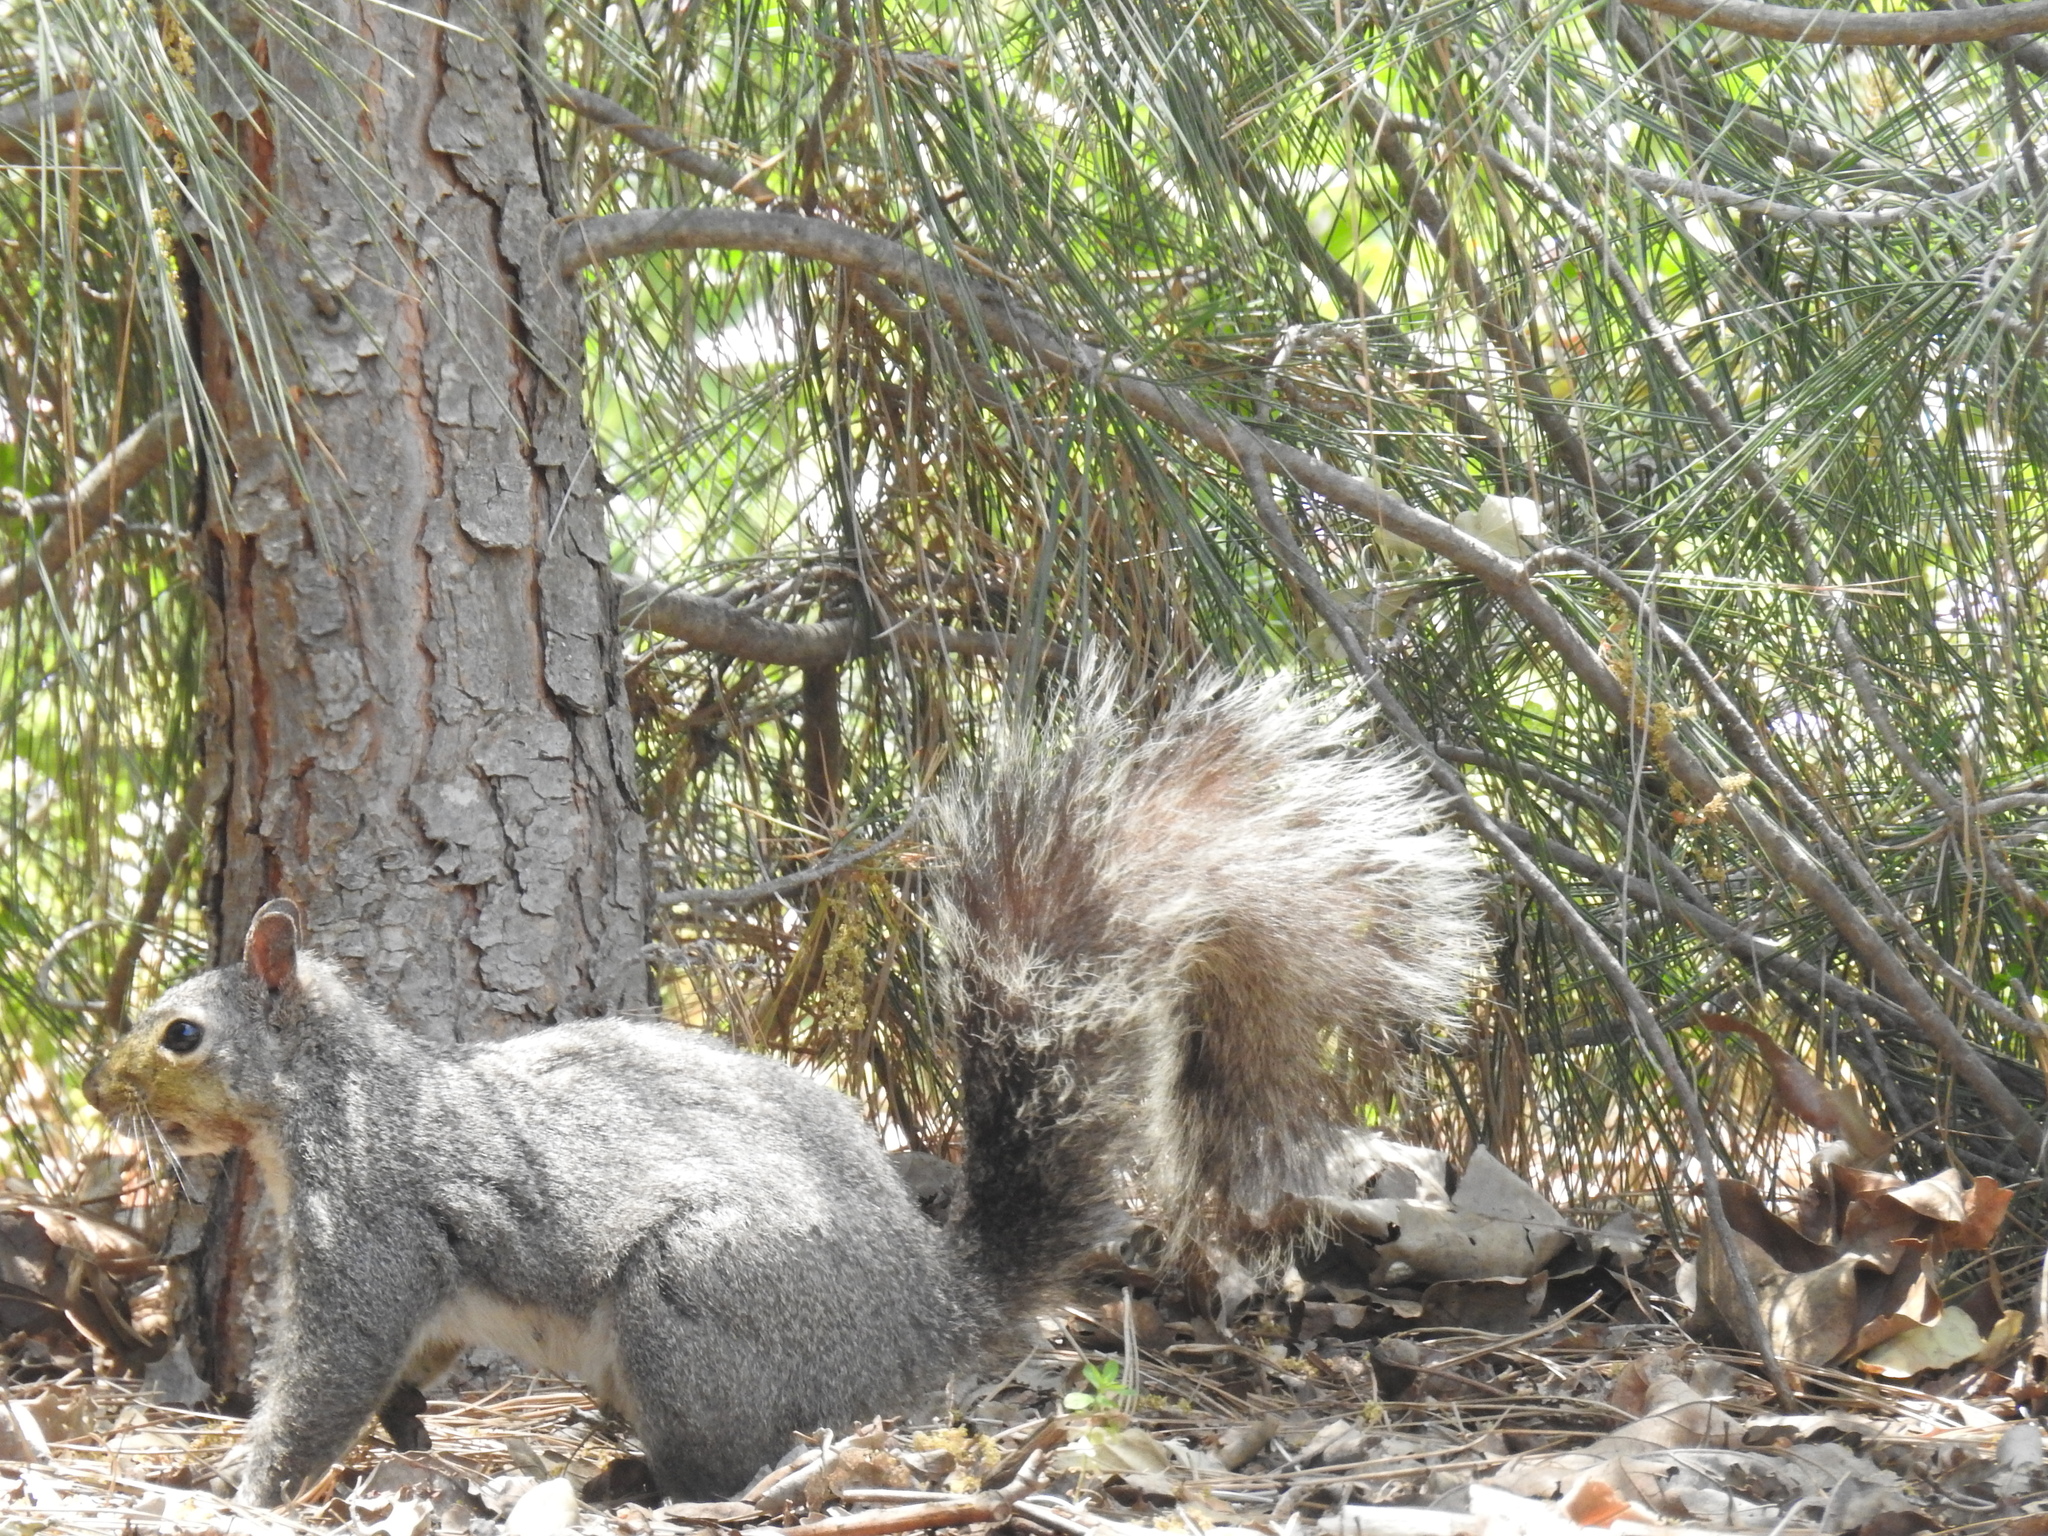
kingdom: Animalia
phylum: Chordata
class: Mammalia
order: Rodentia
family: Sciuridae
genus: Sciurus
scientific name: Sciurus griseus
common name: Western gray squirrel
